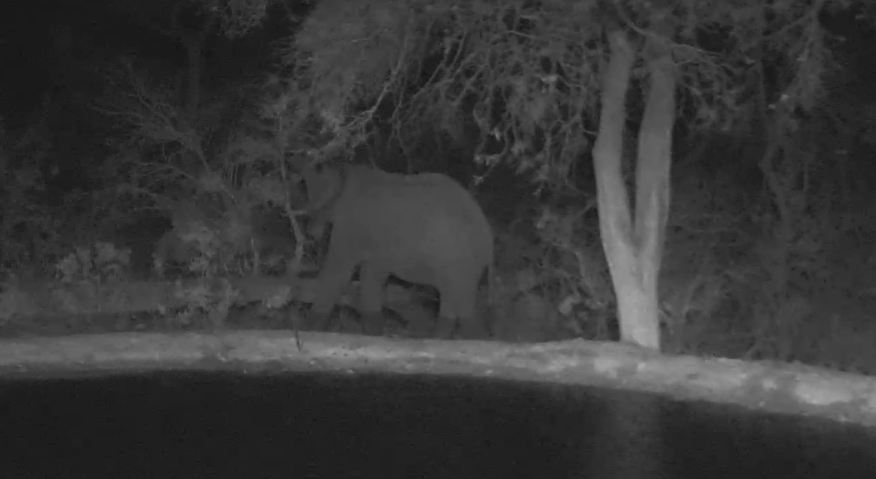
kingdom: Animalia
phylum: Chordata
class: Mammalia
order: Proboscidea
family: Elephantidae
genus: Loxodonta
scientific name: Loxodonta africana
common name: African elephant
